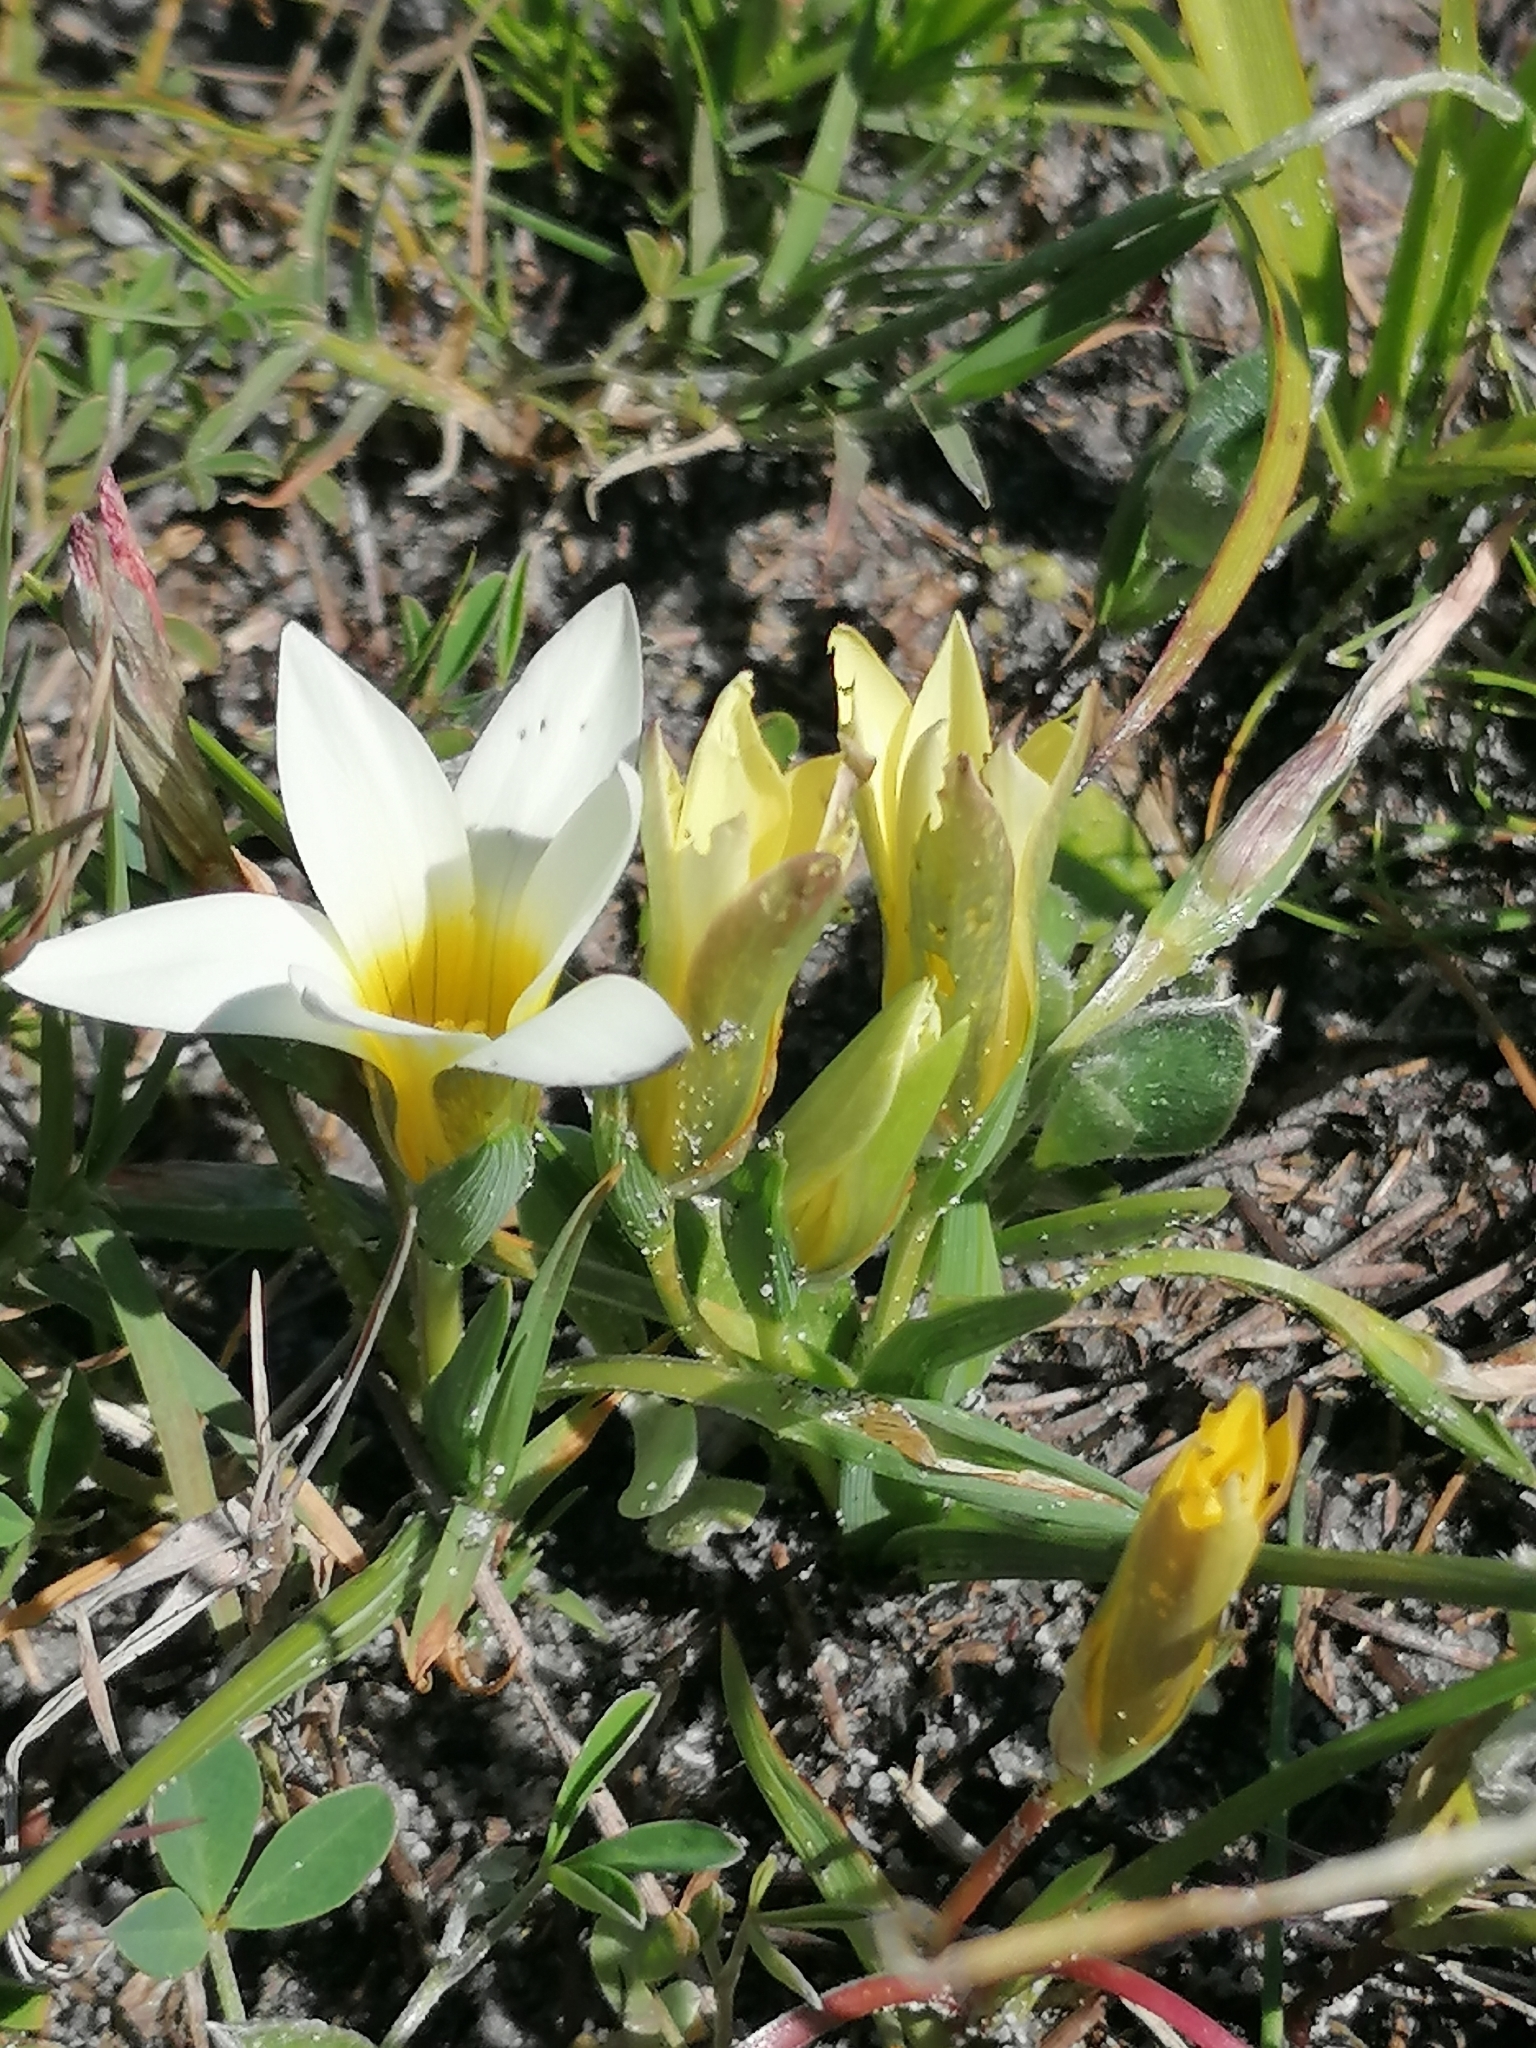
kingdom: Plantae
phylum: Tracheophyta
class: Liliopsida
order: Asparagales
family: Iridaceae
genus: Romulea
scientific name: Romulea flava
